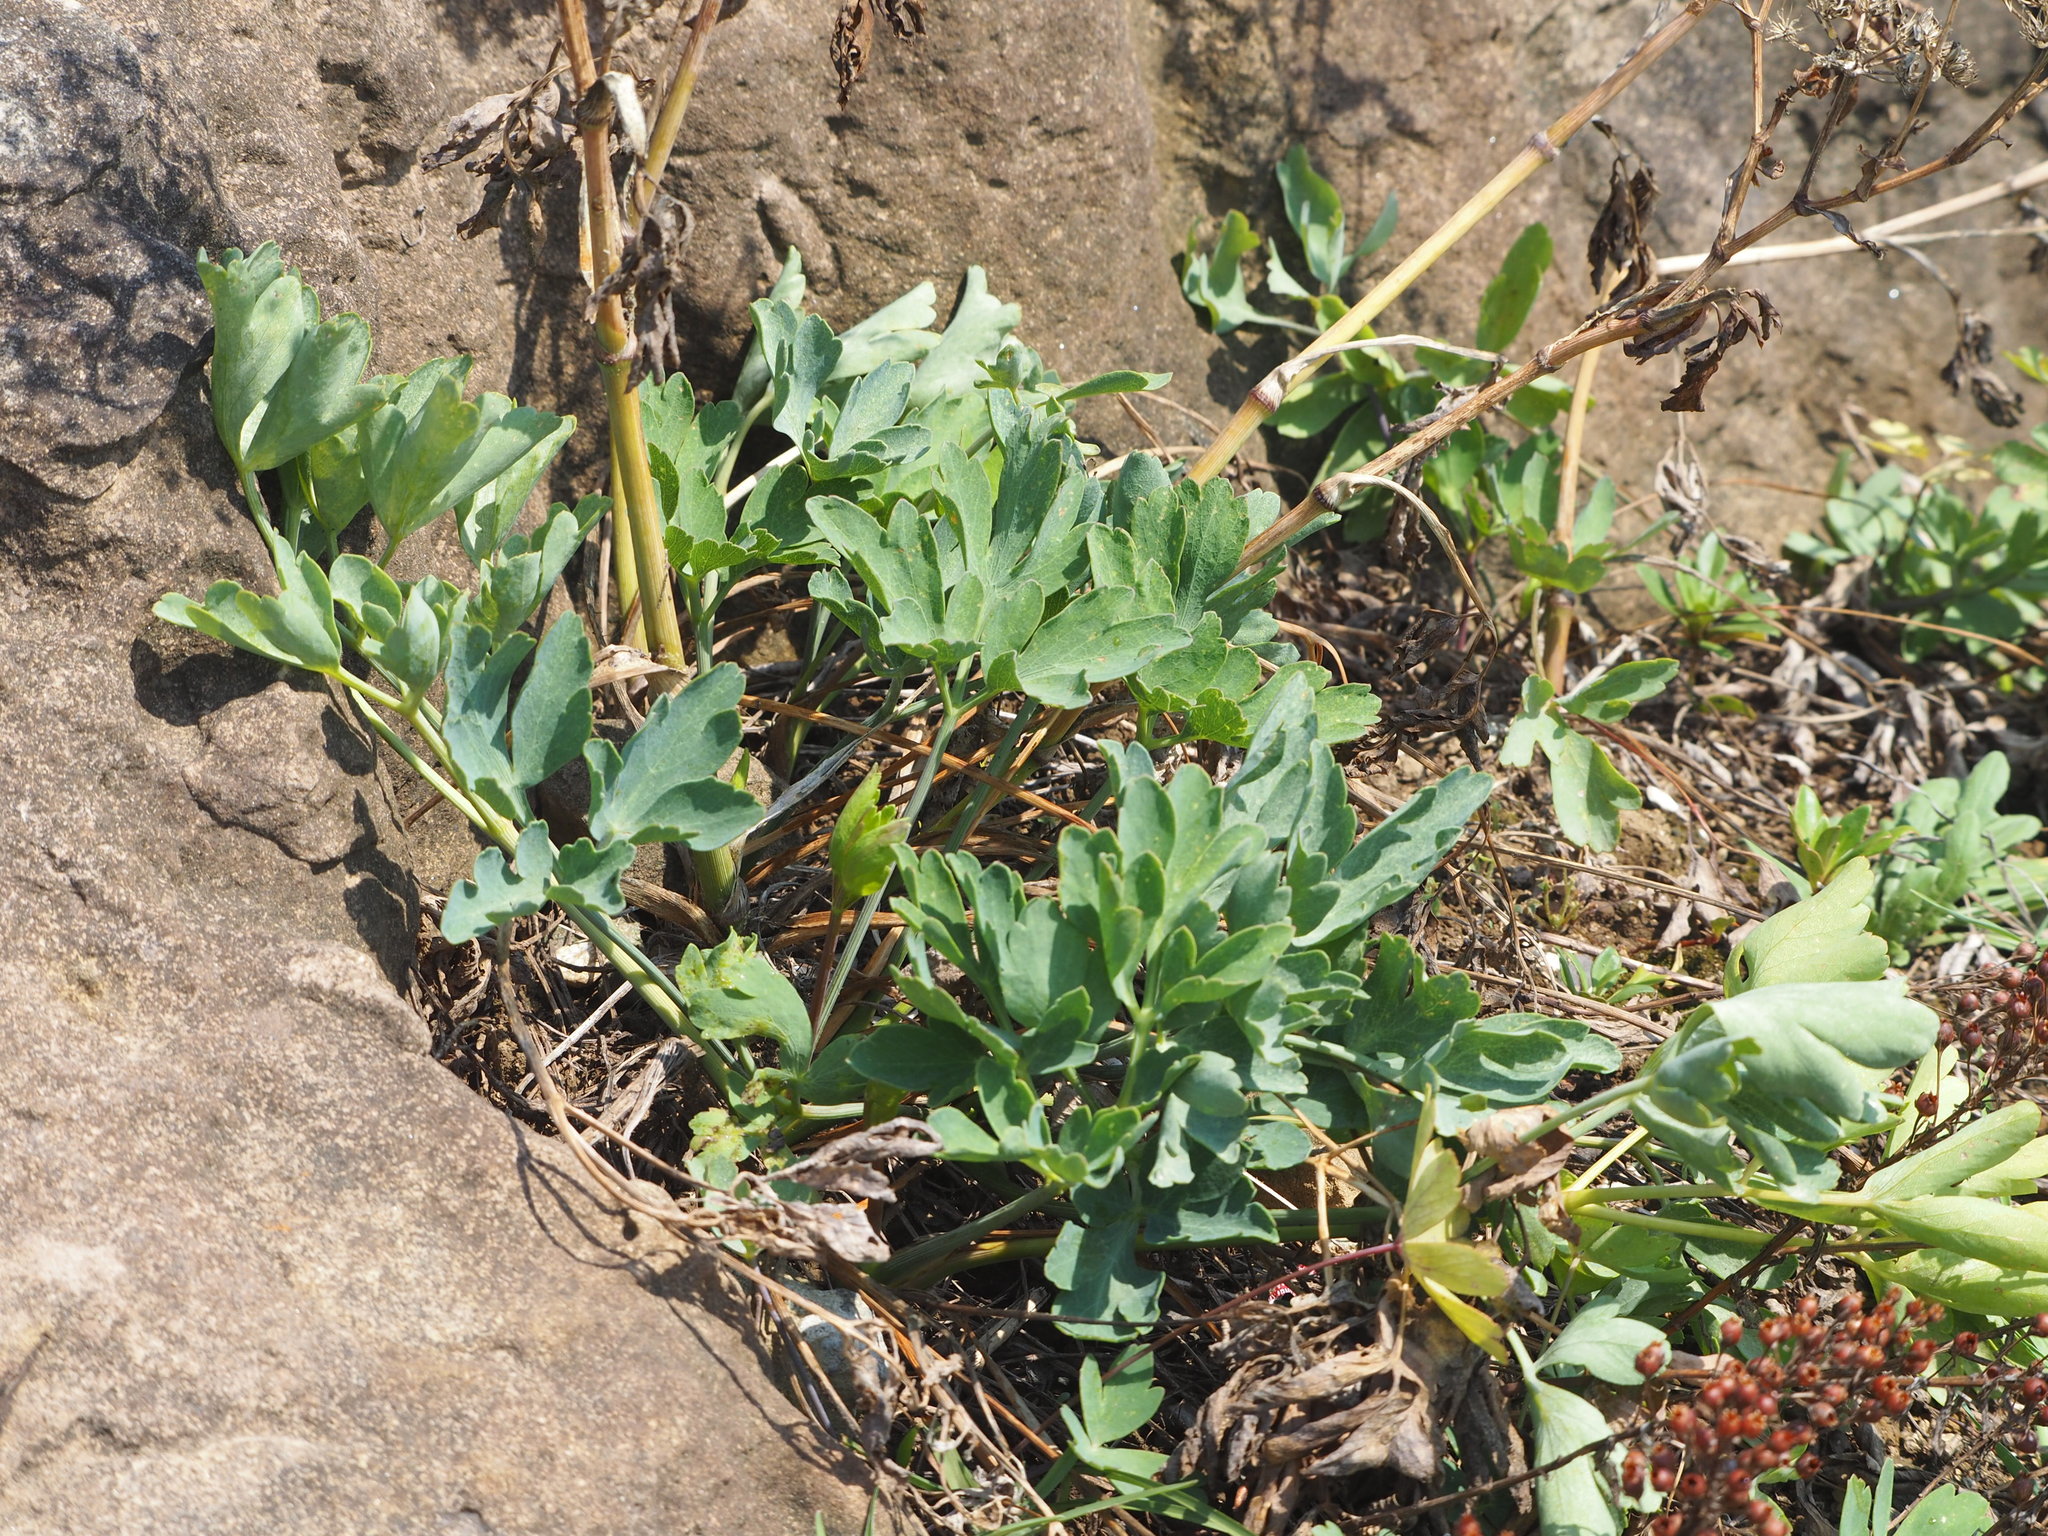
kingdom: Plantae
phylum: Tracheophyta
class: Magnoliopsida
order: Apiales
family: Apiaceae
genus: Peucedanum
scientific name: Peucedanum japonicum
